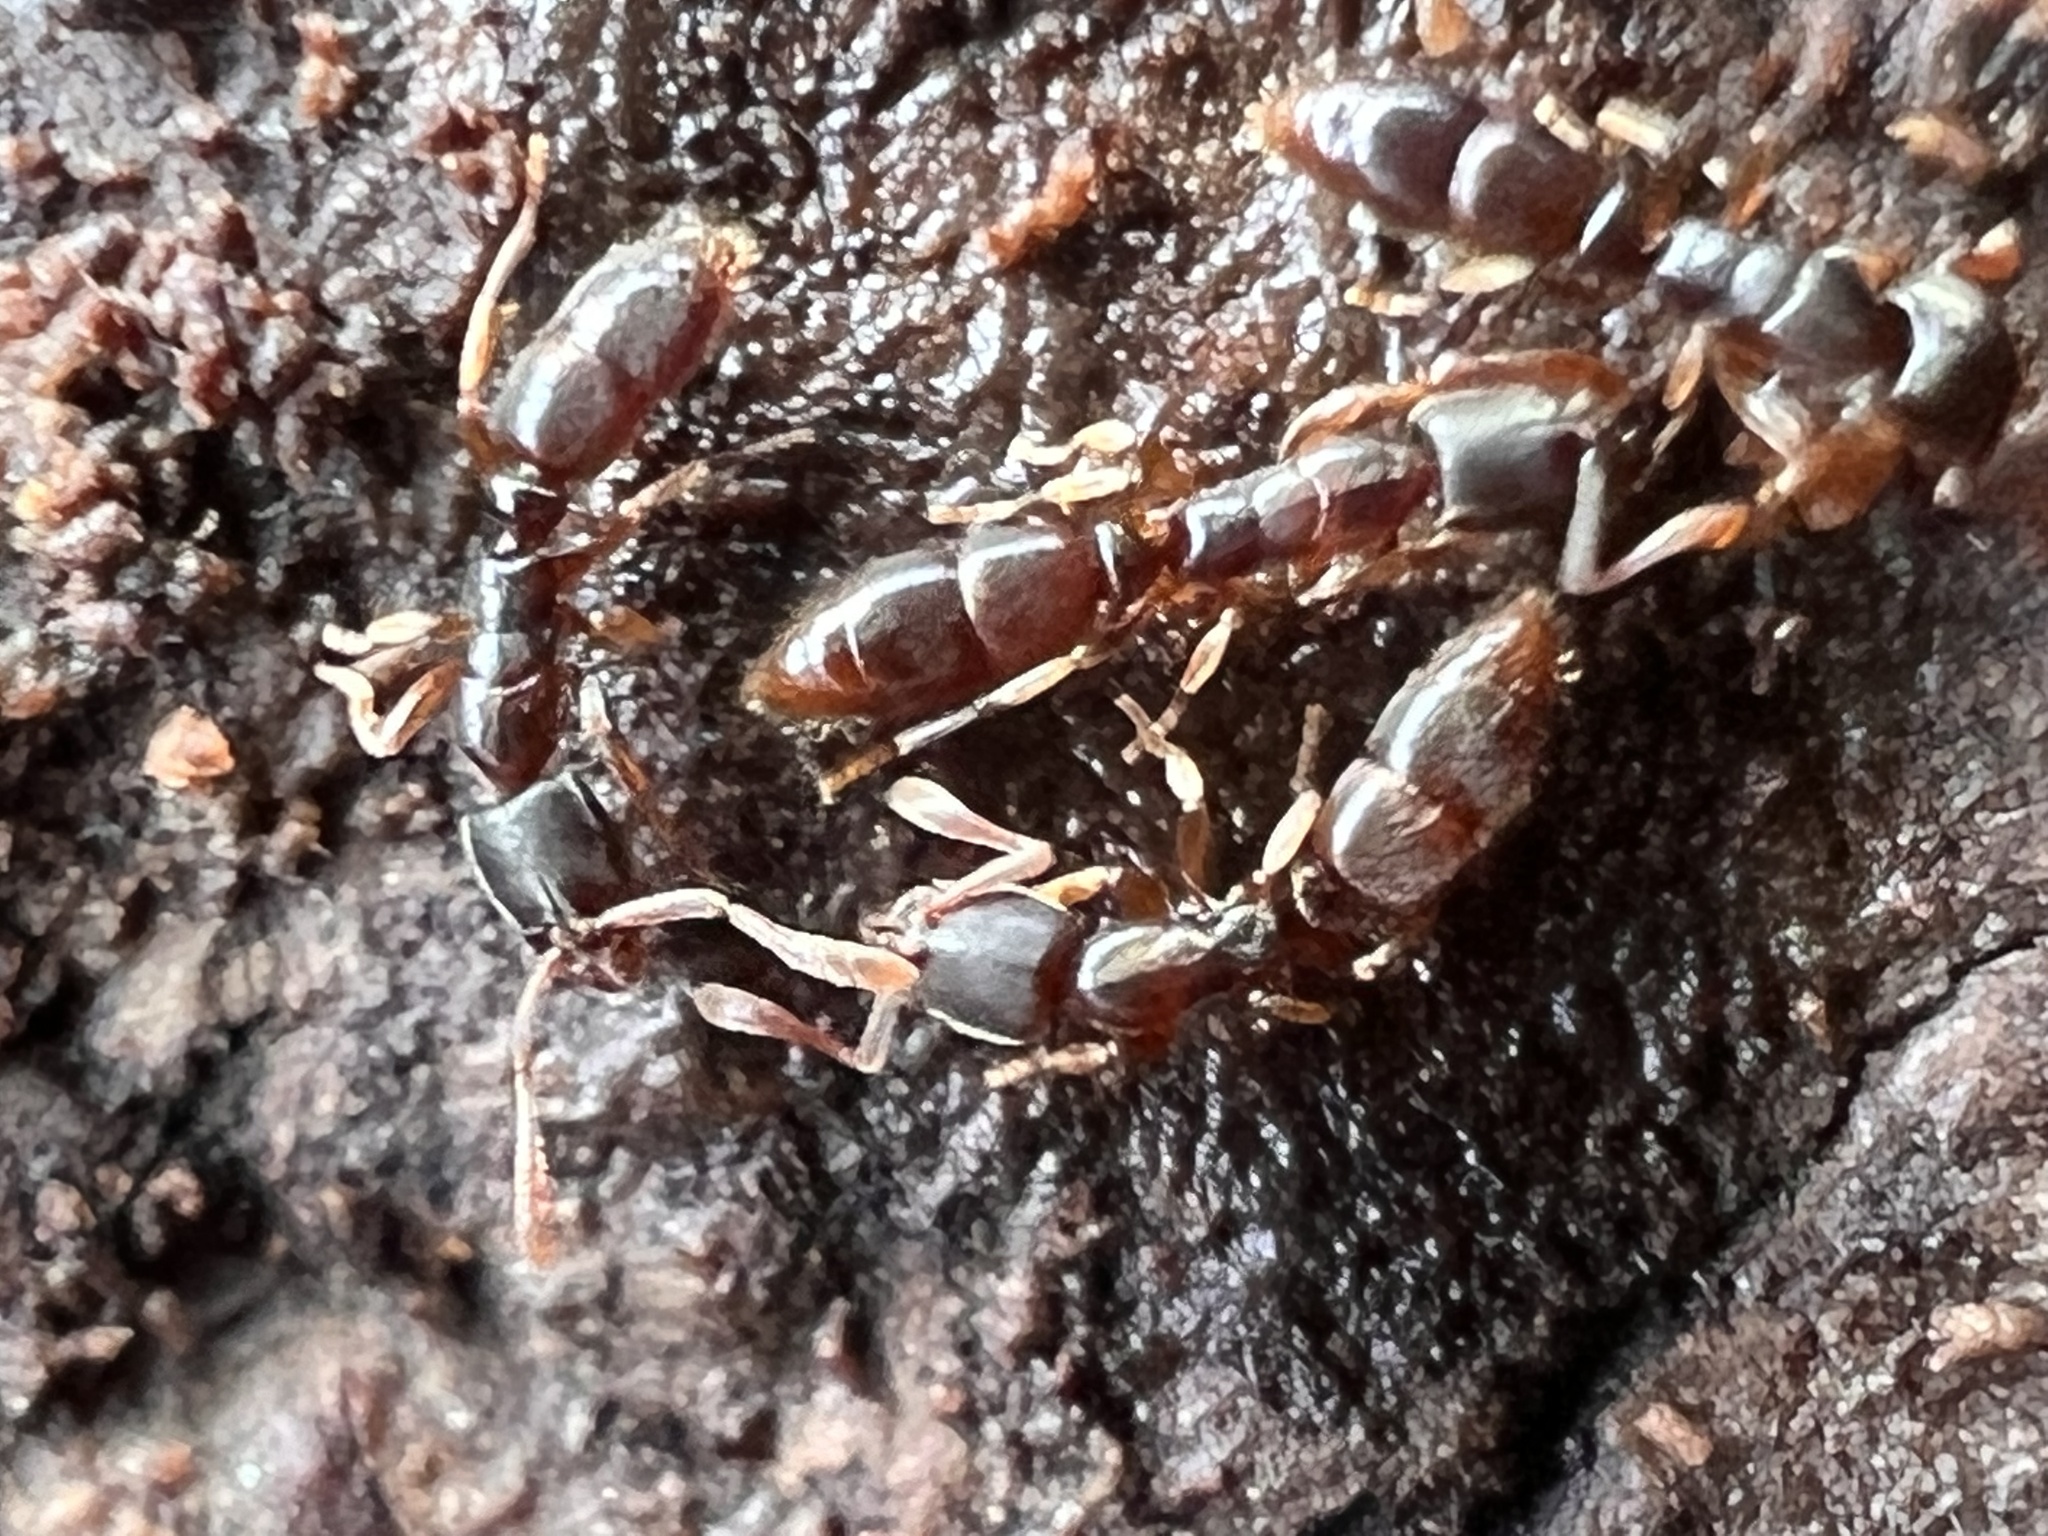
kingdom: Animalia
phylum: Arthropoda
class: Insecta
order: Hymenoptera
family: Formicidae
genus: Ponera
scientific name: Ponera pennsylvanica
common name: Pennsylvania ponera
